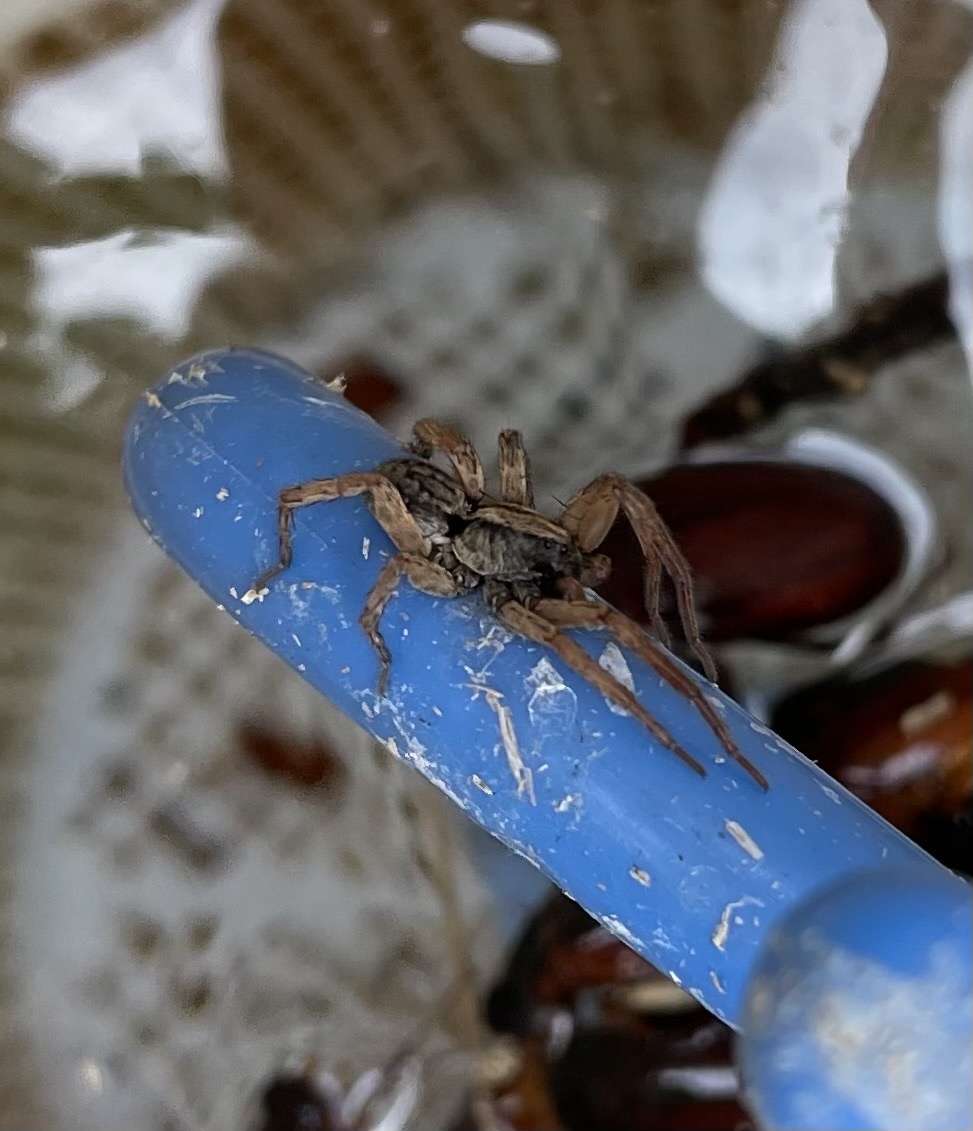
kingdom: Animalia
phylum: Arthropoda
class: Arachnida
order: Araneae
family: Lycosidae
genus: Trochosa
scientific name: Trochosa sepulchralis
